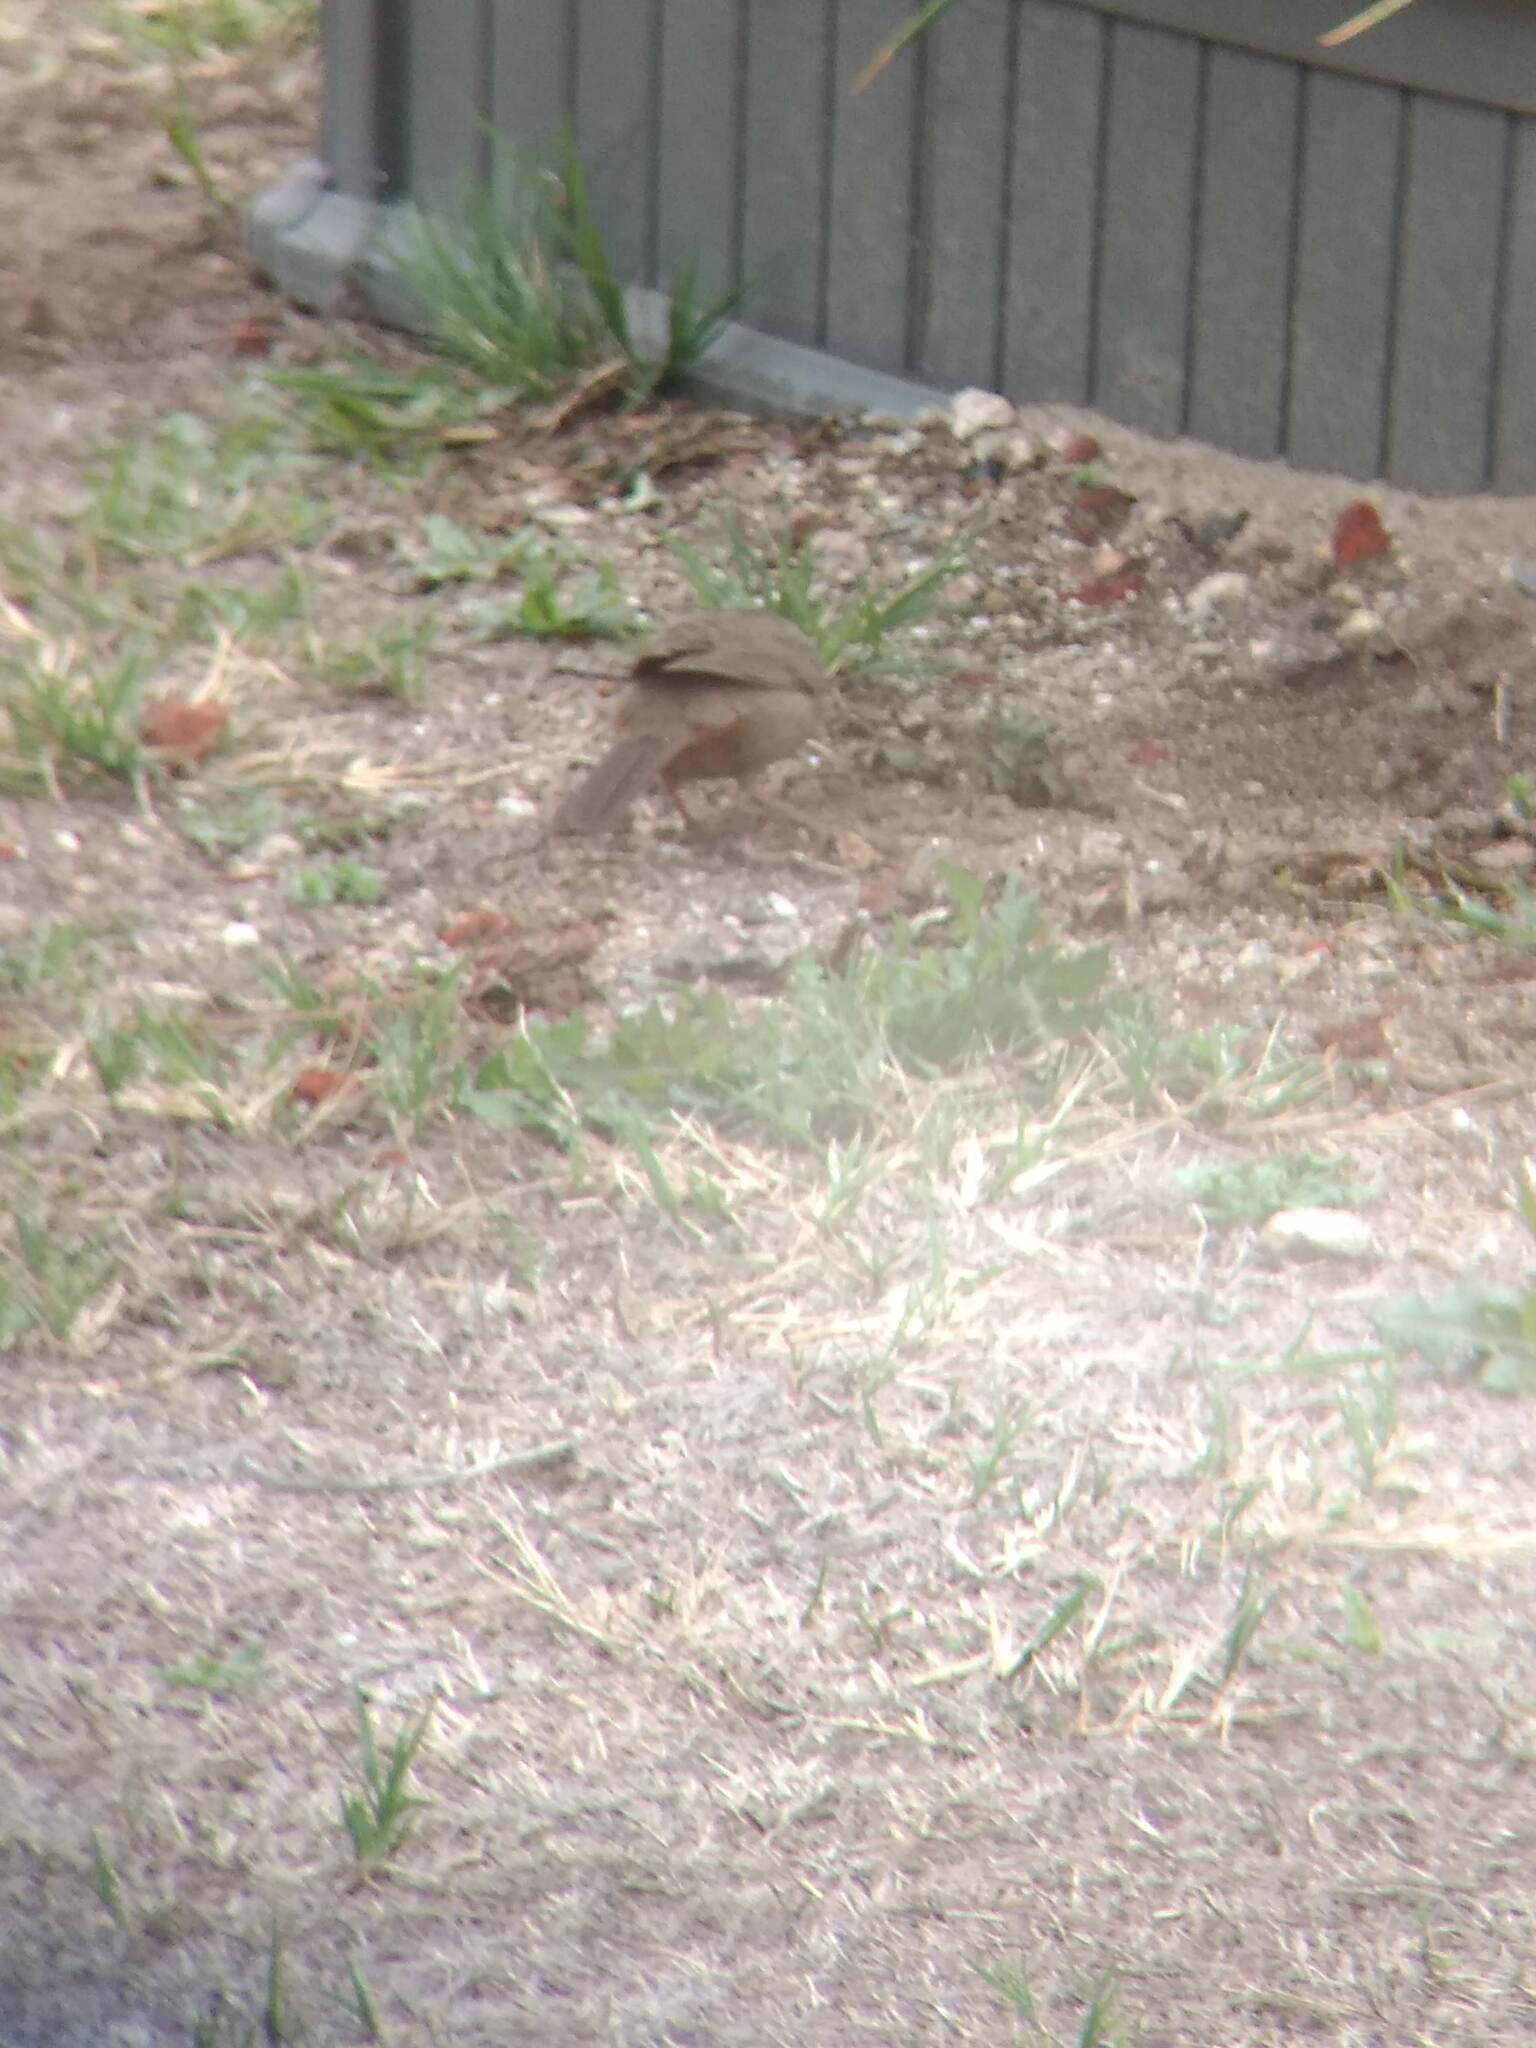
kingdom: Animalia
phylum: Chordata
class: Aves
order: Passeriformes
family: Passerellidae
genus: Melozone
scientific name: Melozone crissalis
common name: California towhee
